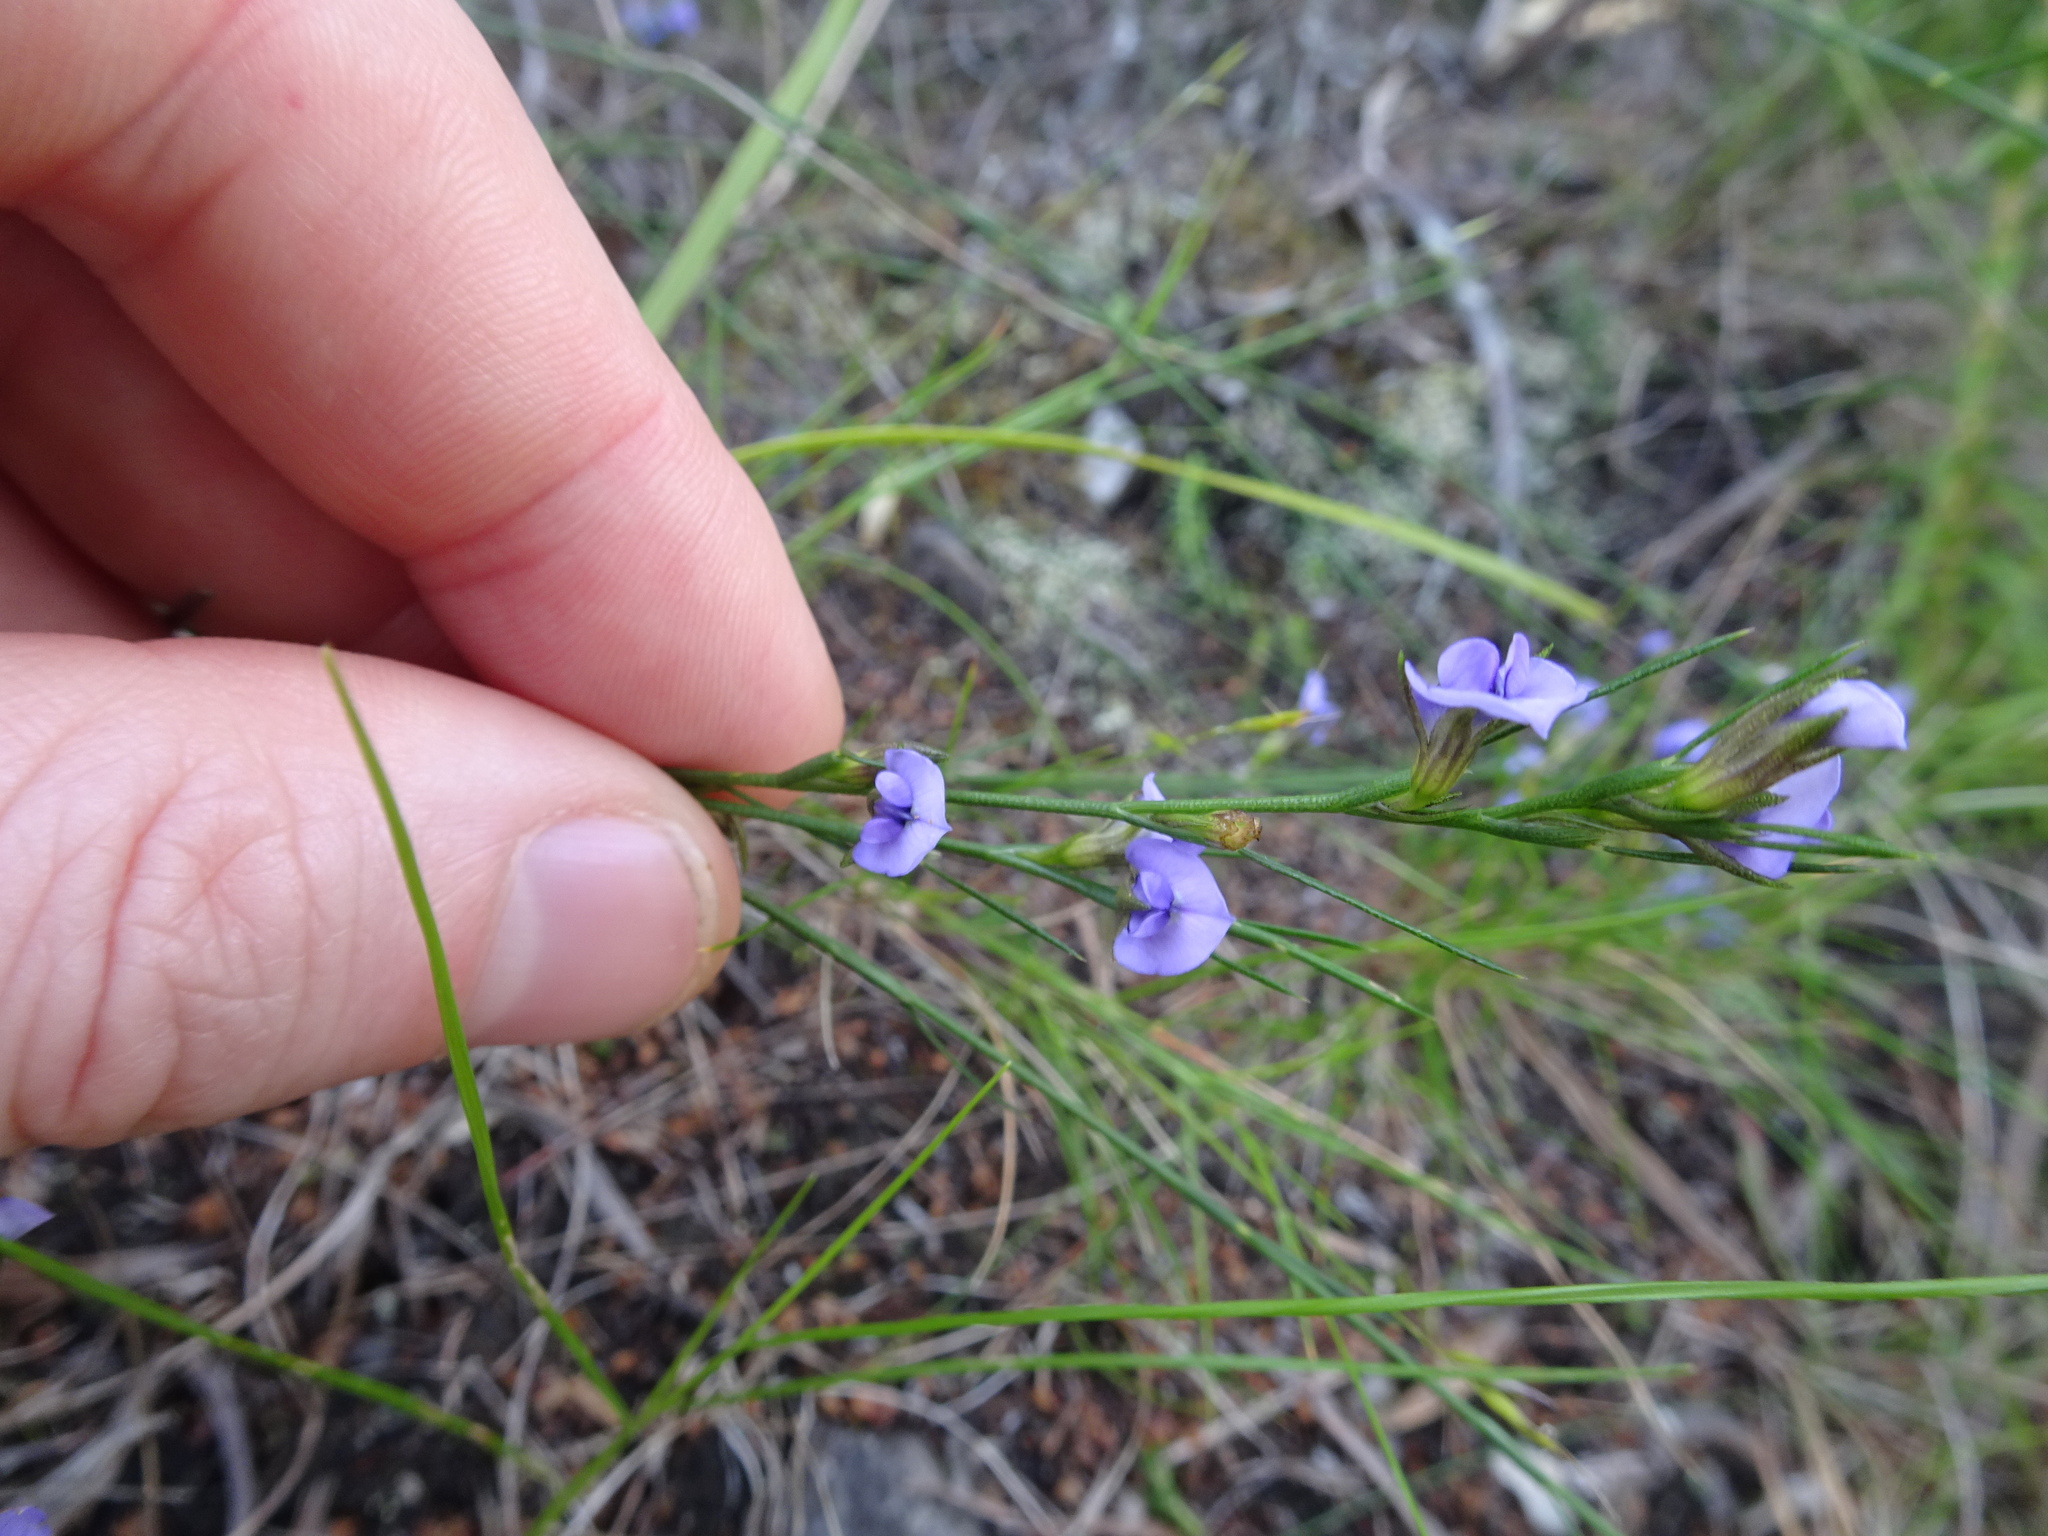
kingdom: Plantae
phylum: Tracheophyta
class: Magnoliopsida
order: Fabales
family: Fabaceae
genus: Psoralea
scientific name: Psoralea restioides
